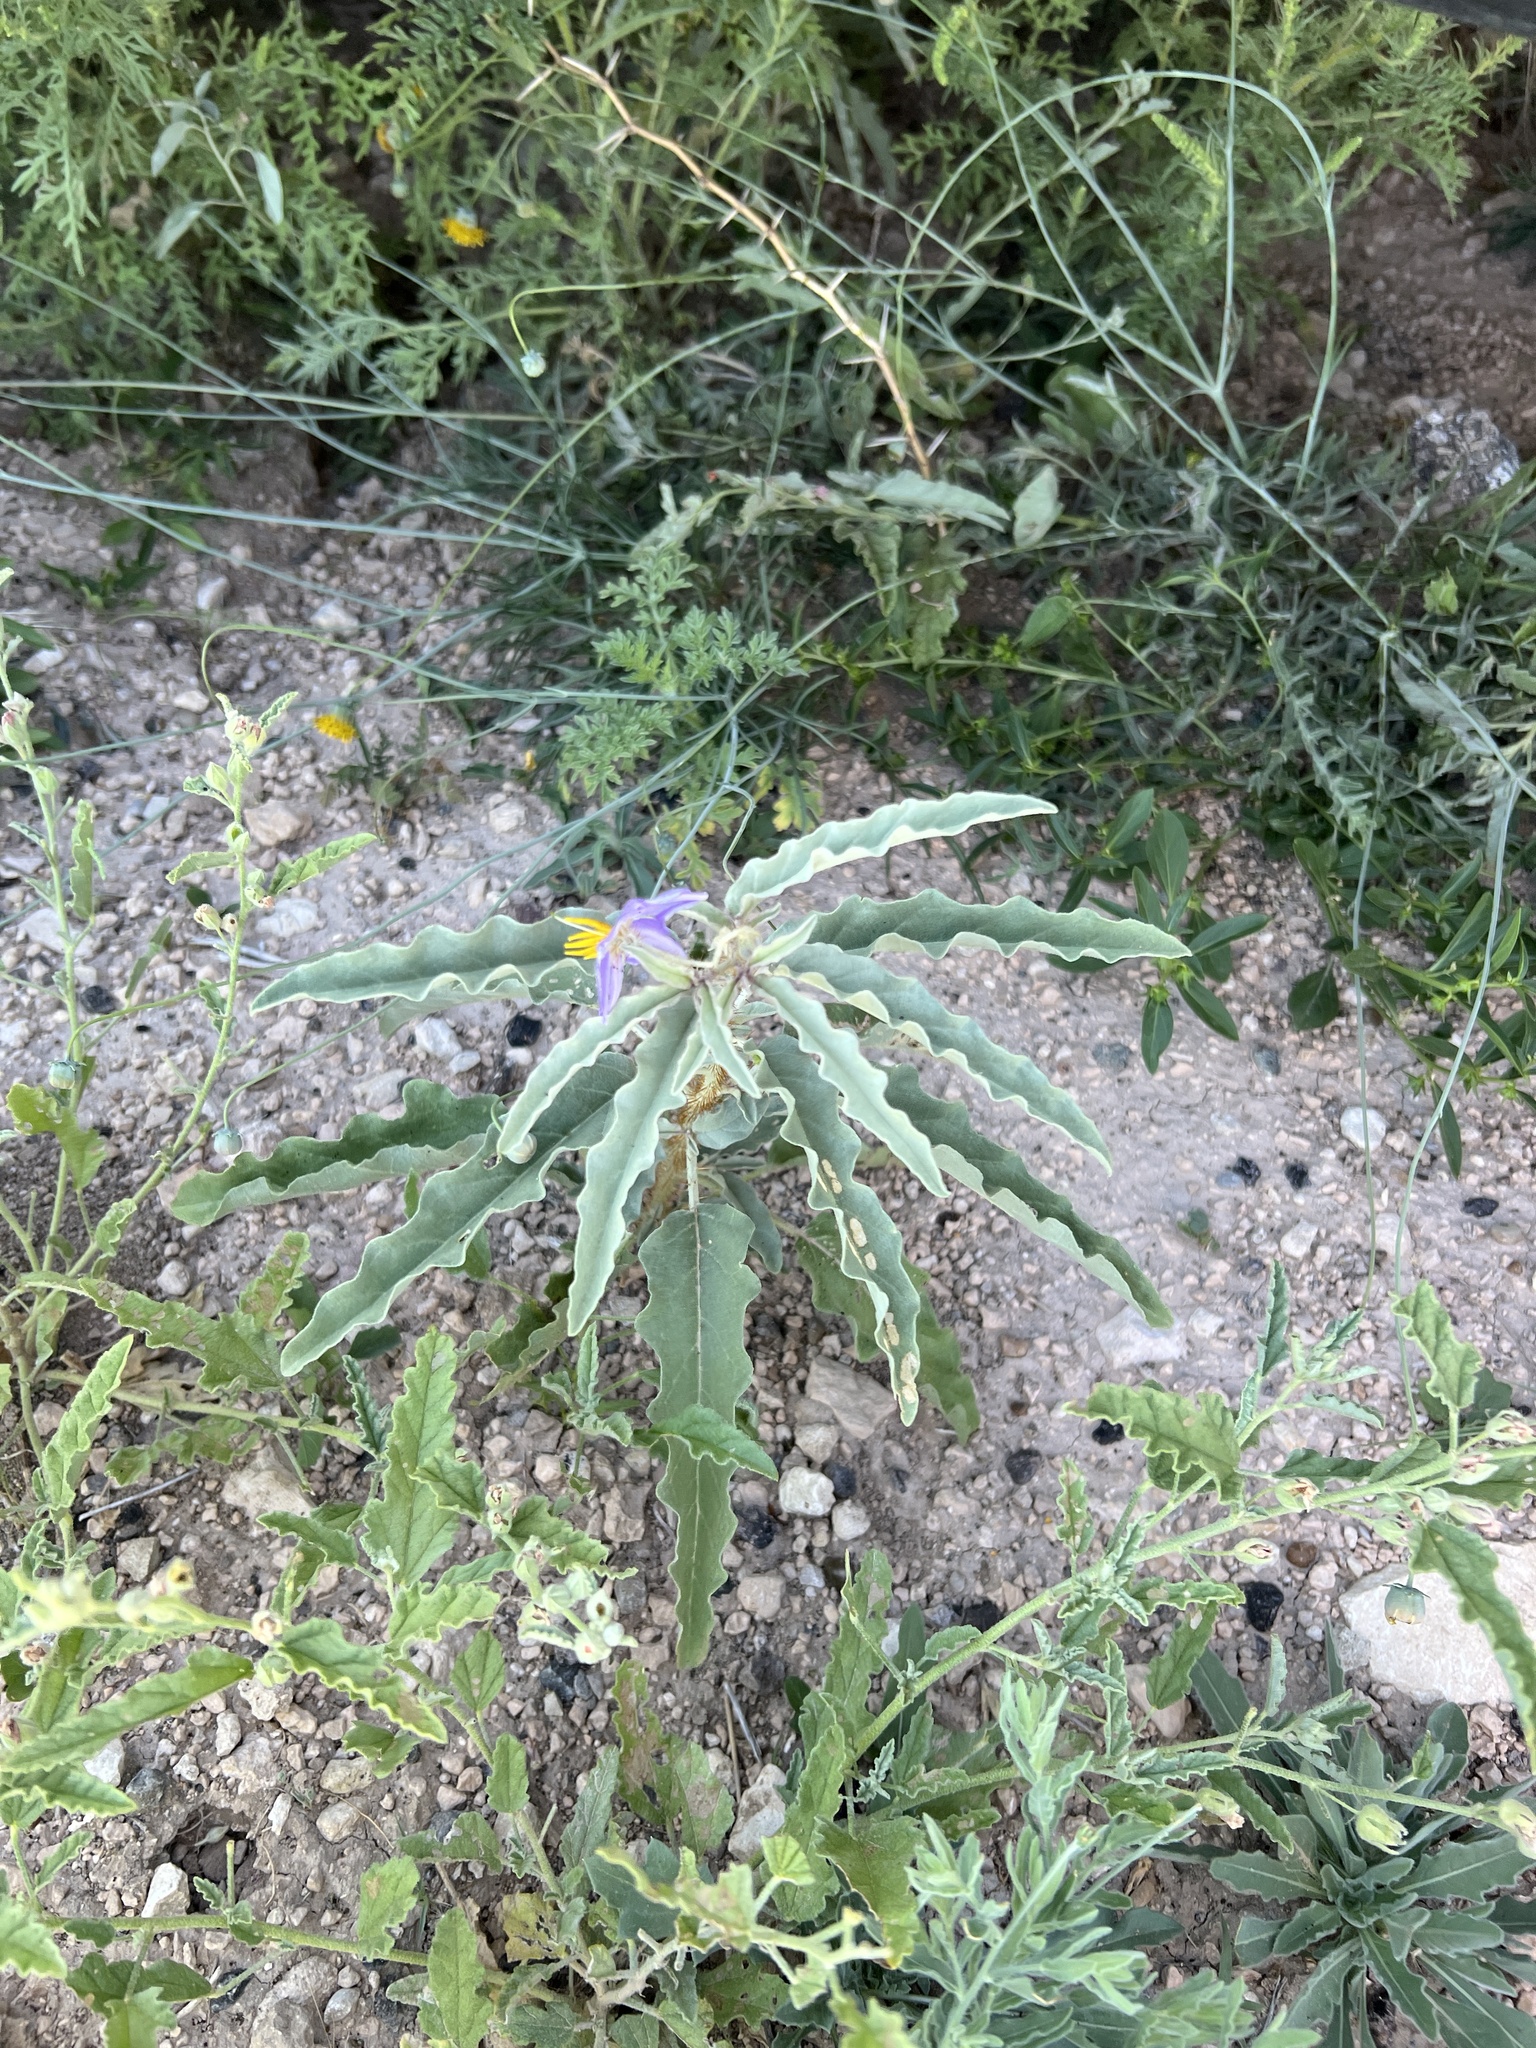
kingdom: Plantae
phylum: Tracheophyta
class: Magnoliopsida
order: Solanales
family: Solanaceae
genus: Solanum
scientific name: Solanum elaeagnifolium
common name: Silverleaf nightshade
